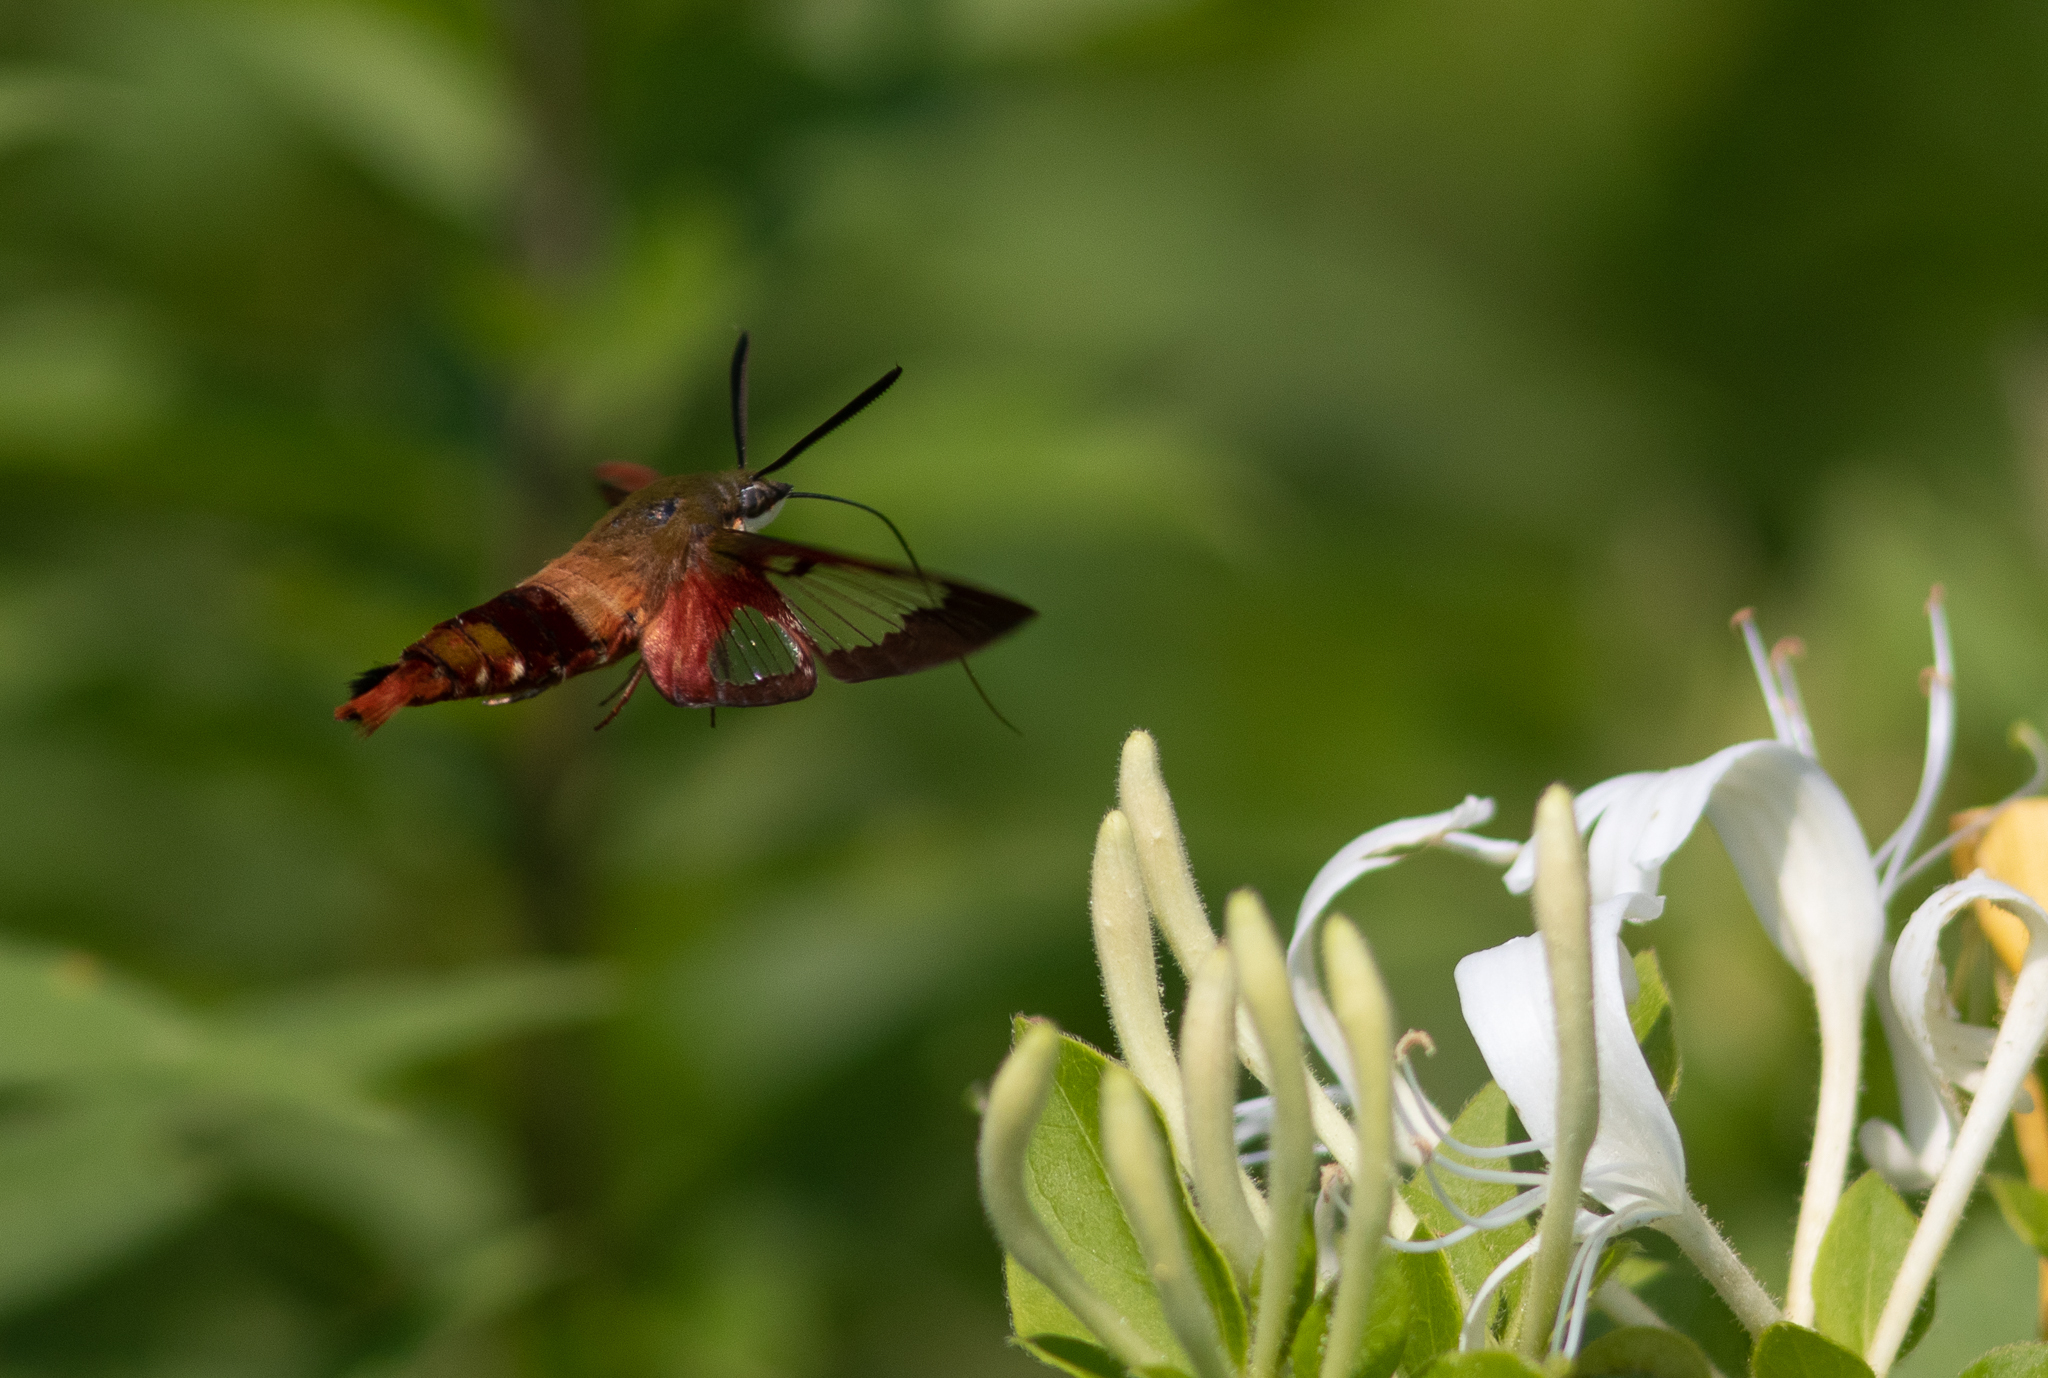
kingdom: Animalia
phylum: Arthropoda
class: Insecta
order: Lepidoptera
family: Sphingidae
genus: Hemaris
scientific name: Hemaris thysbe
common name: Common clear-wing
